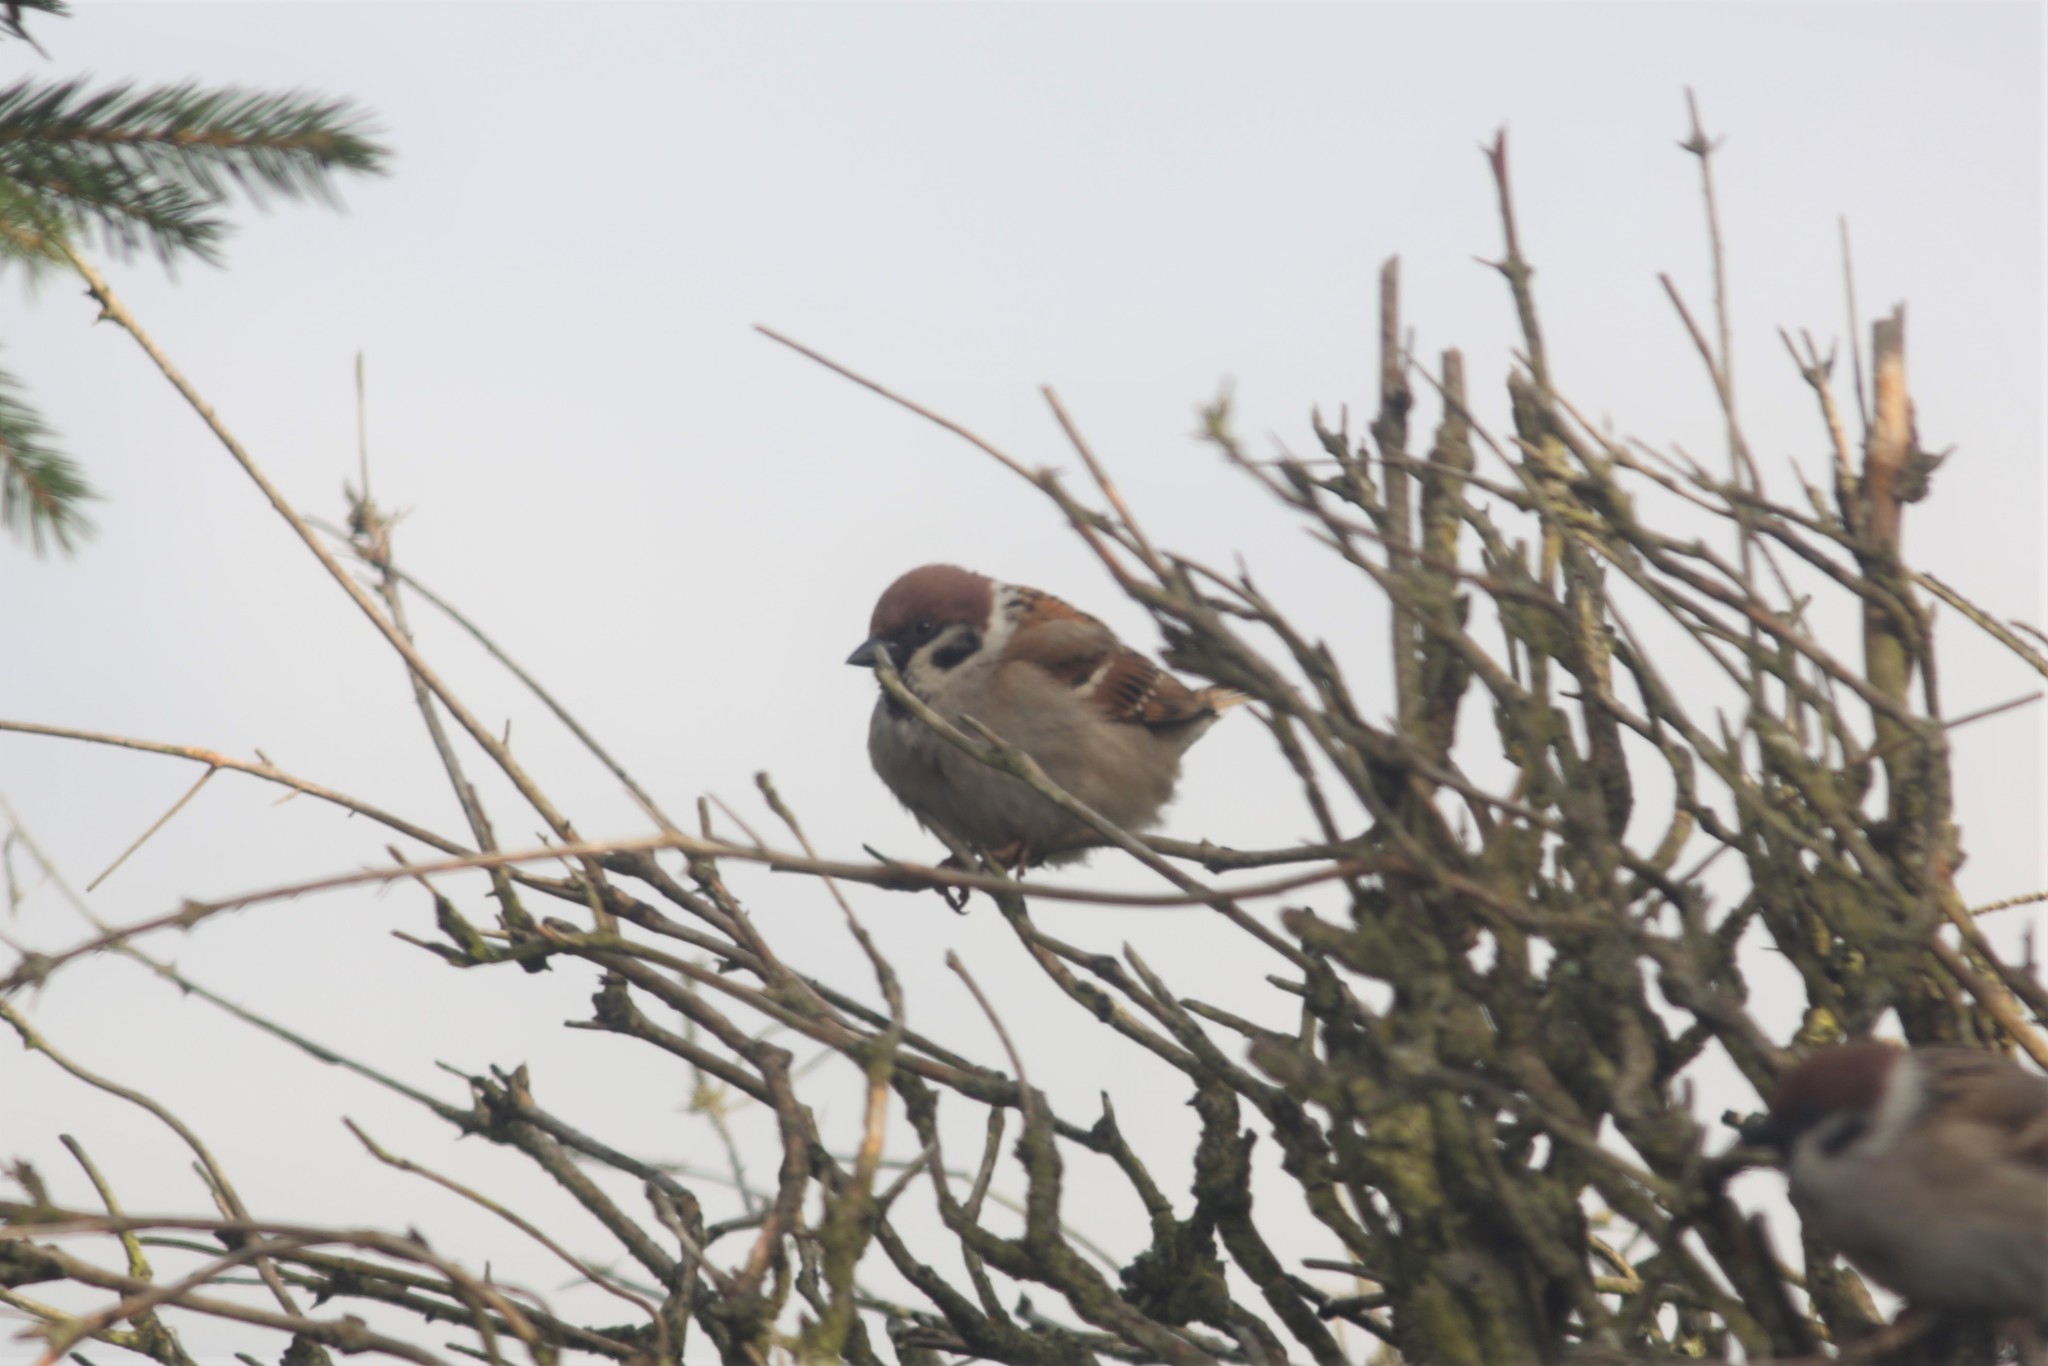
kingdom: Animalia
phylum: Chordata
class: Aves
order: Passeriformes
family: Passeridae
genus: Passer
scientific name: Passer montanus
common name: Eurasian tree sparrow
